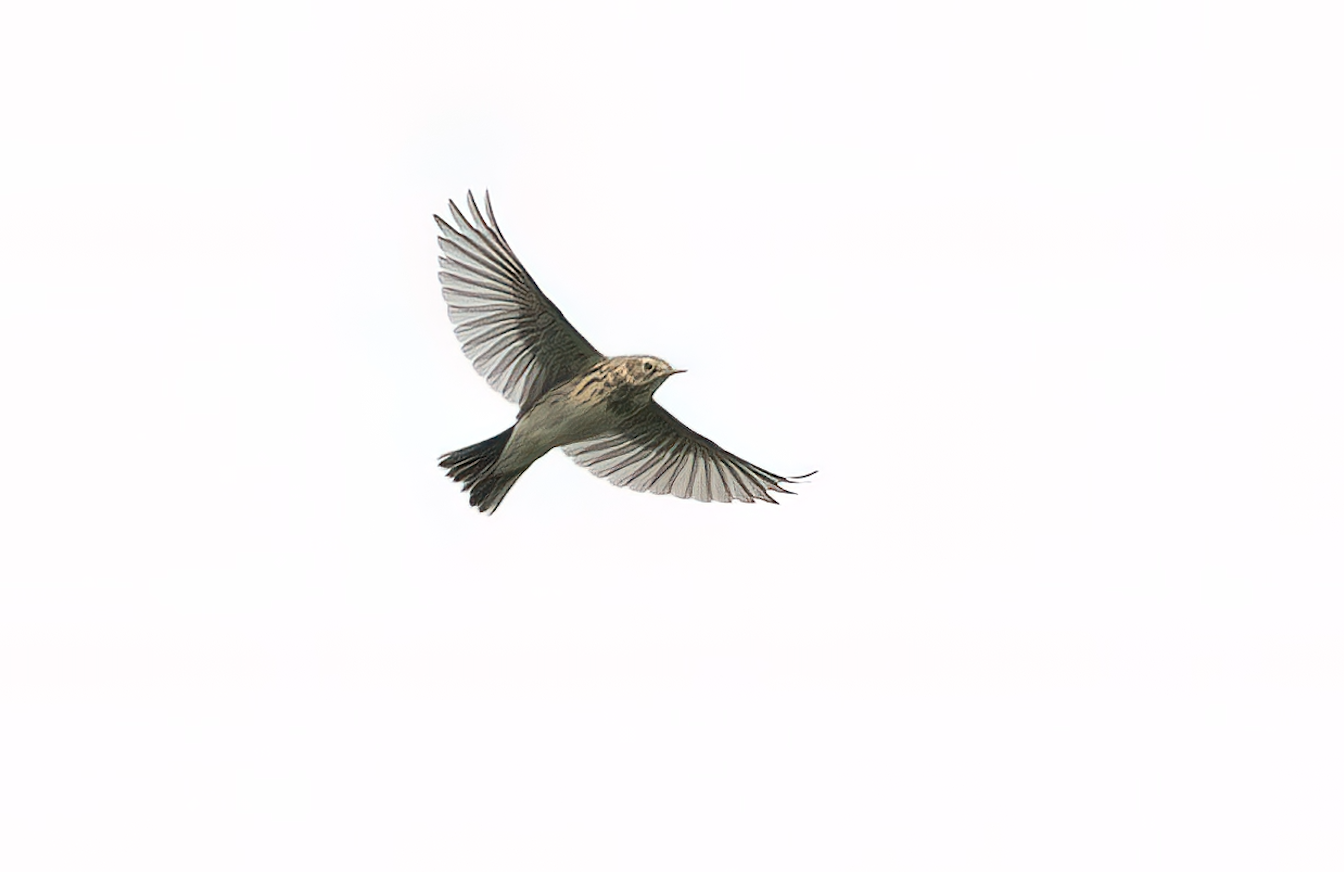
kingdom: Animalia
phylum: Chordata
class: Aves
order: Passeriformes
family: Motacillidae
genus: Anthus
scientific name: Anthus pratensis
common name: Meadow pipit
